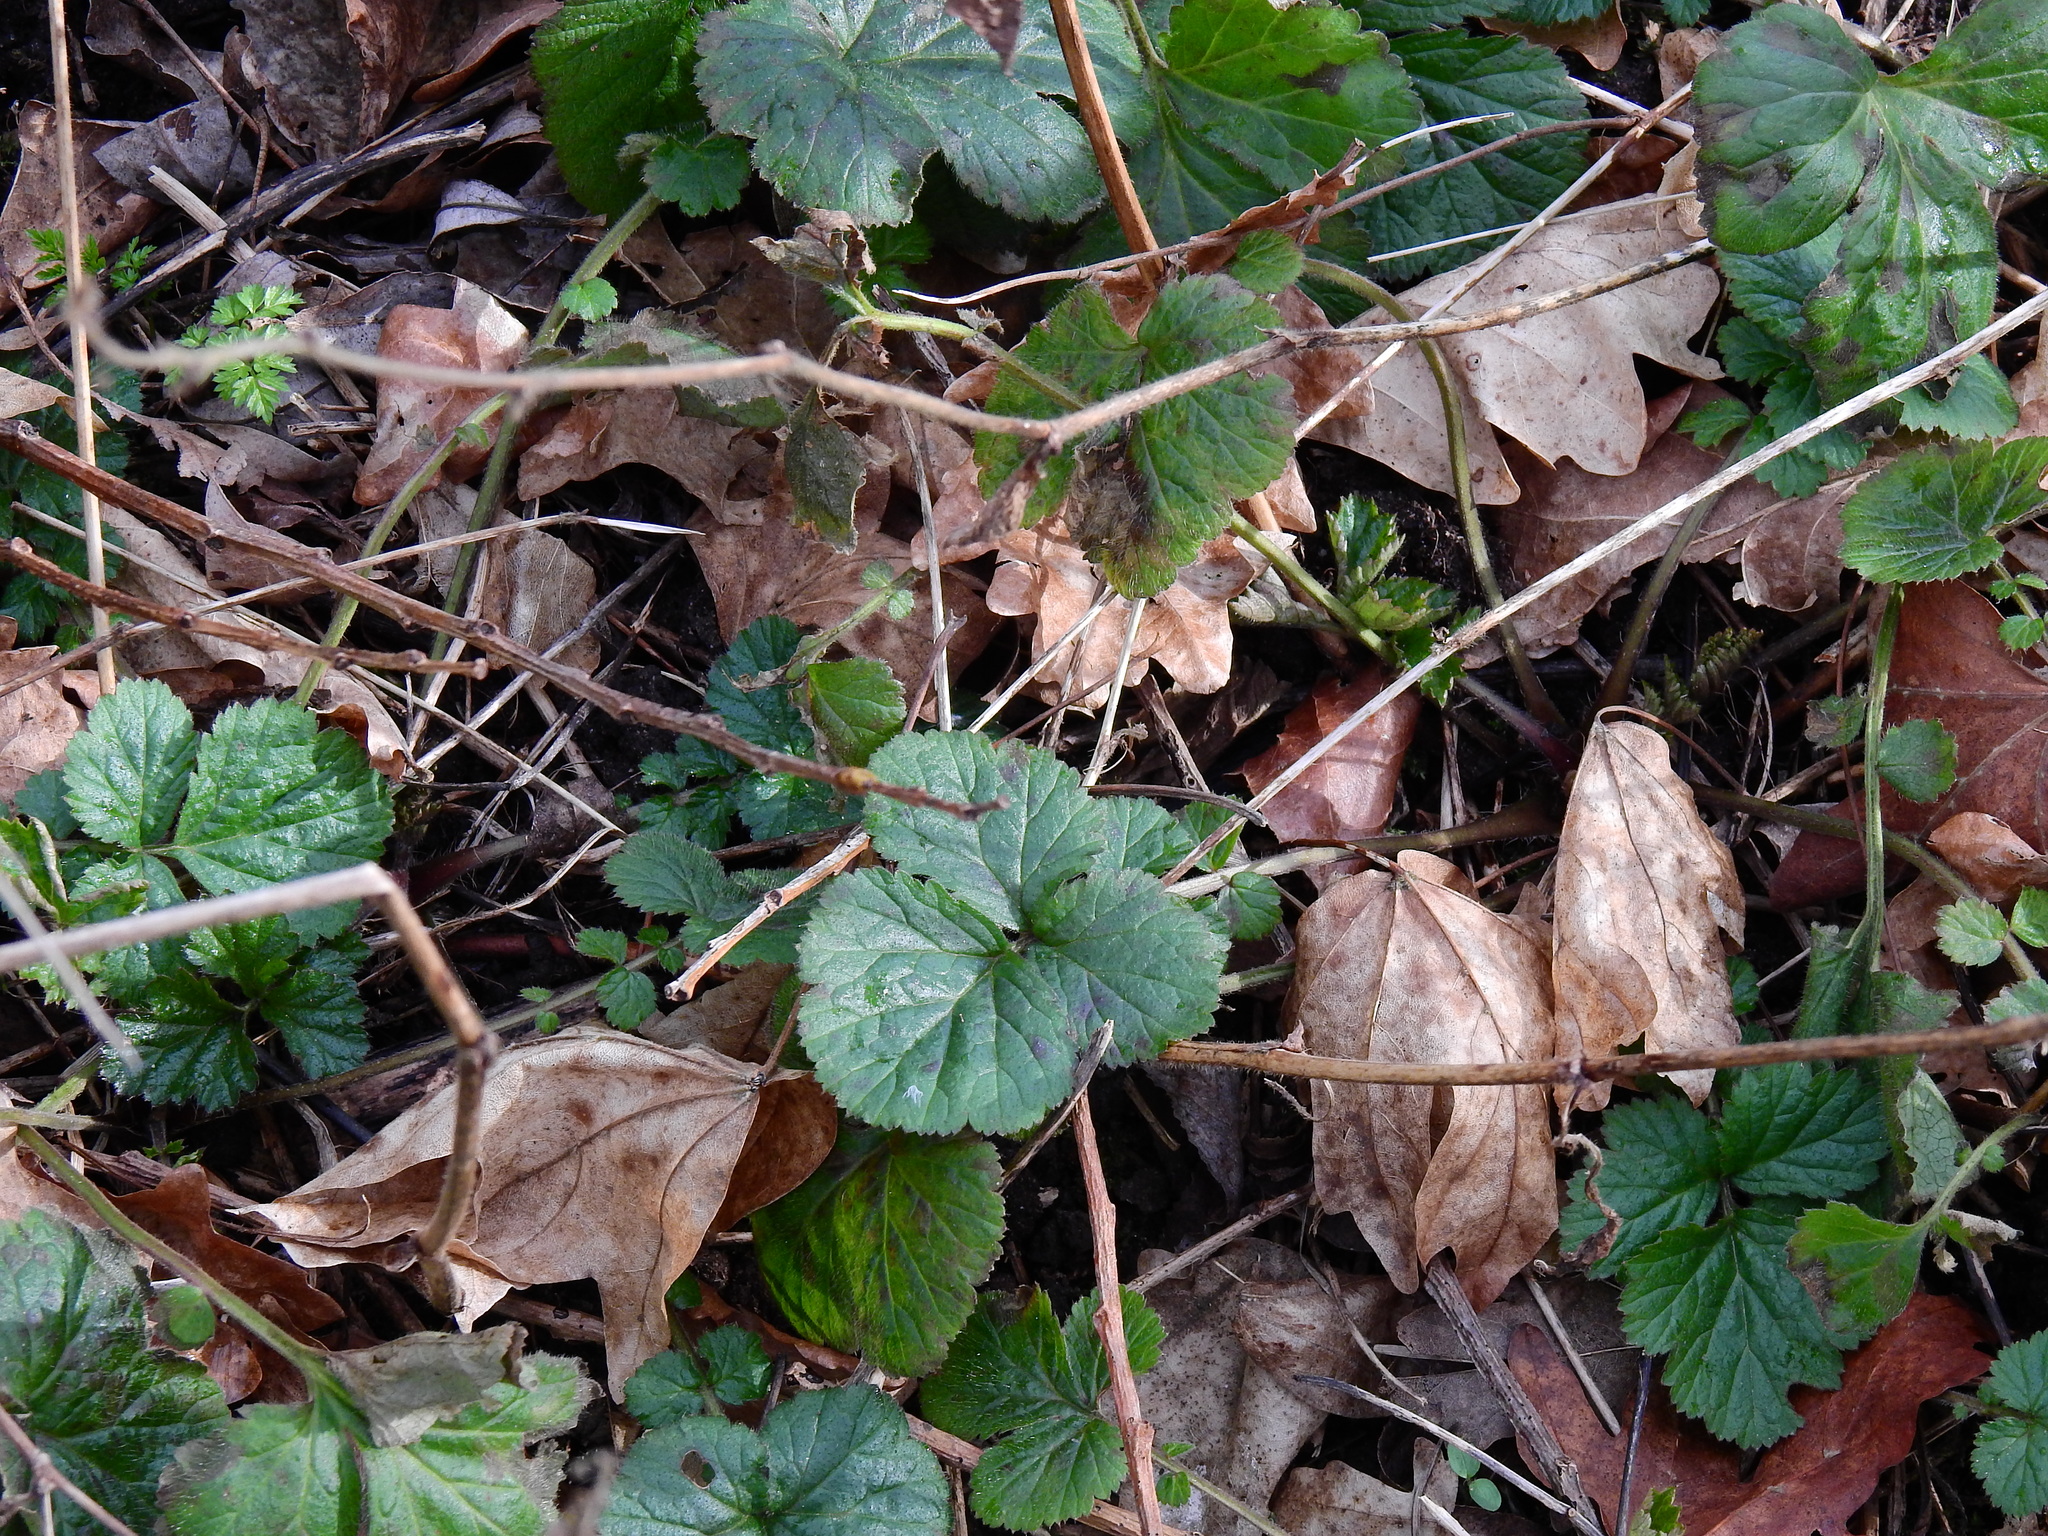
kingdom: Plantae
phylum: Tracheophyta
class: Magnoliopsida
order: Rosales
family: Rosaceae
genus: Geum
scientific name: Geum urbanum
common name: Wood avens
